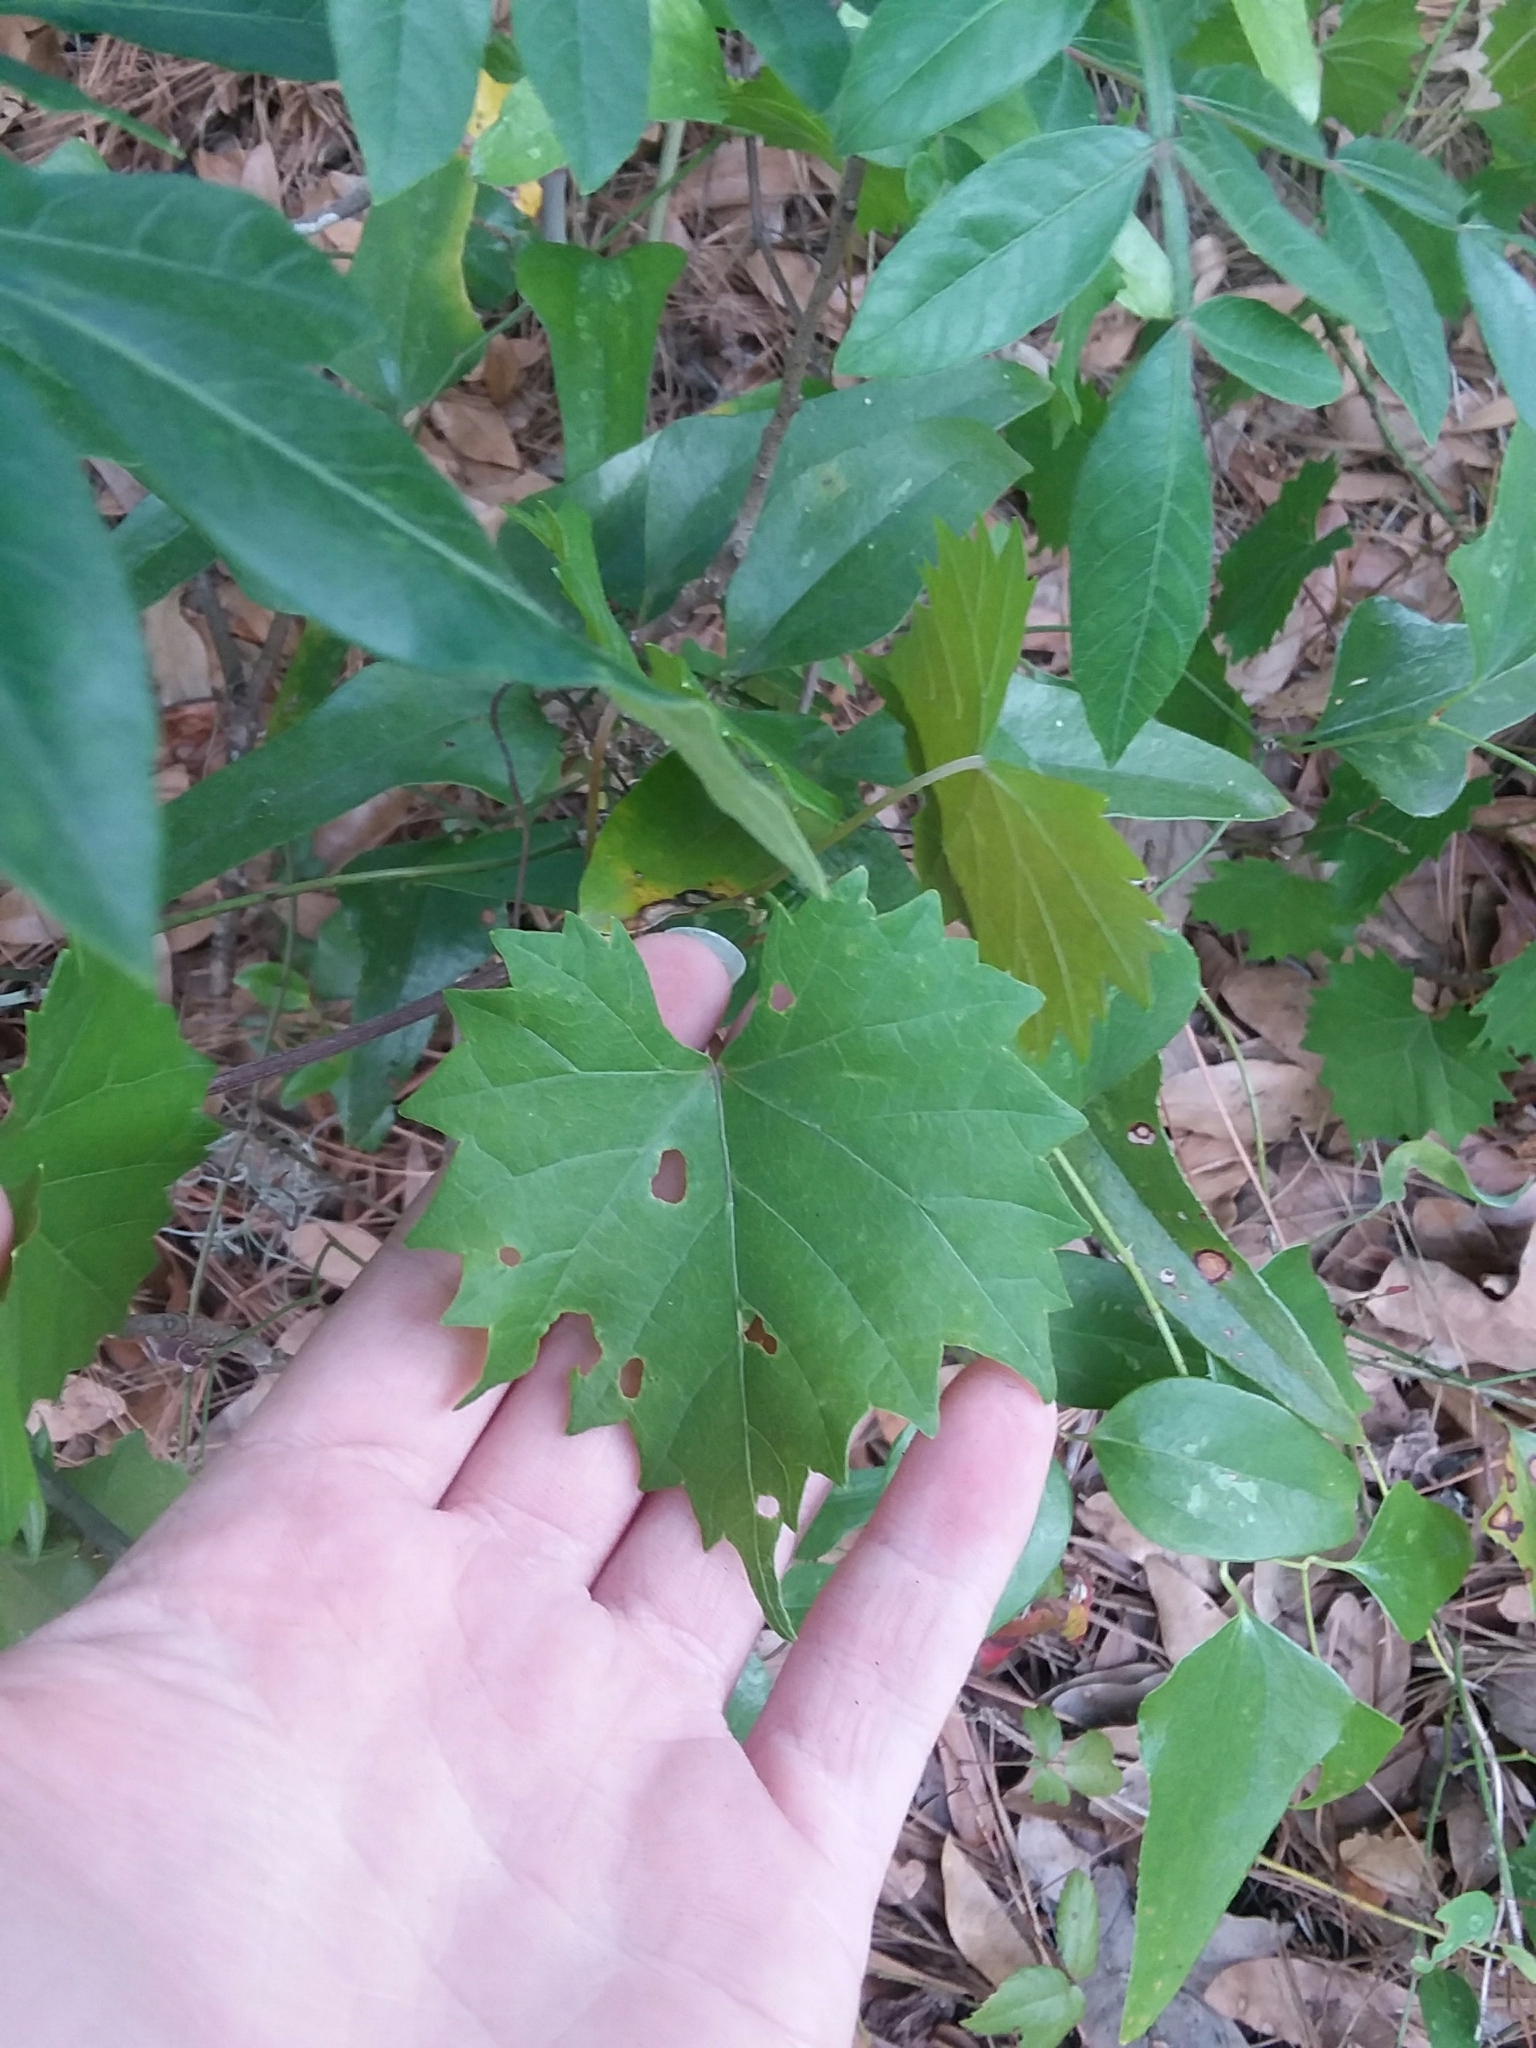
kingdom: Plantae
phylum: Tracheophyta
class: Magnoliopsida
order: Vitales
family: Vitaceae
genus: Vitis
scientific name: Vitis rotundifolia
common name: Muscadine grape
